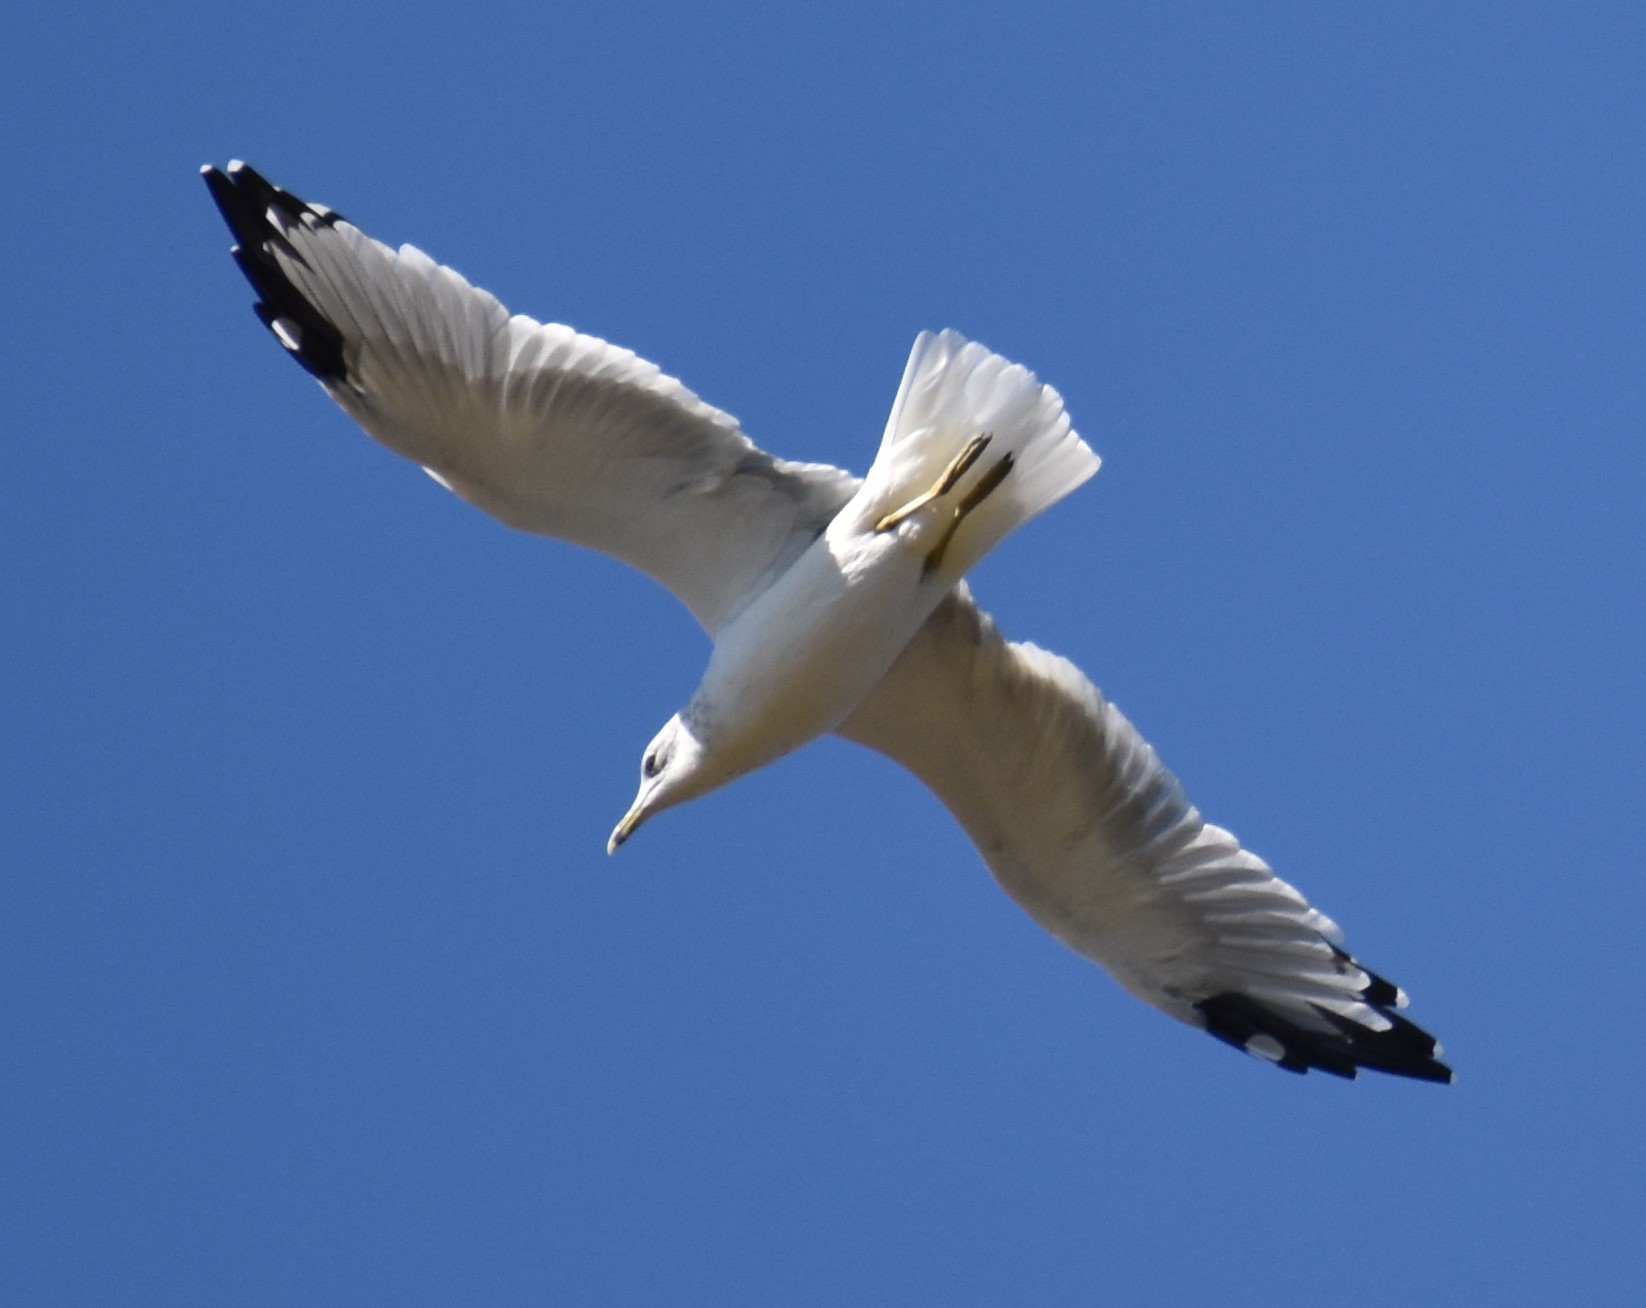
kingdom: Animalia
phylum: Chordata
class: Aves
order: Charadriiformes
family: Laridae
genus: Larus
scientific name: Larus delawarensis
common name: Ring-billed gull
